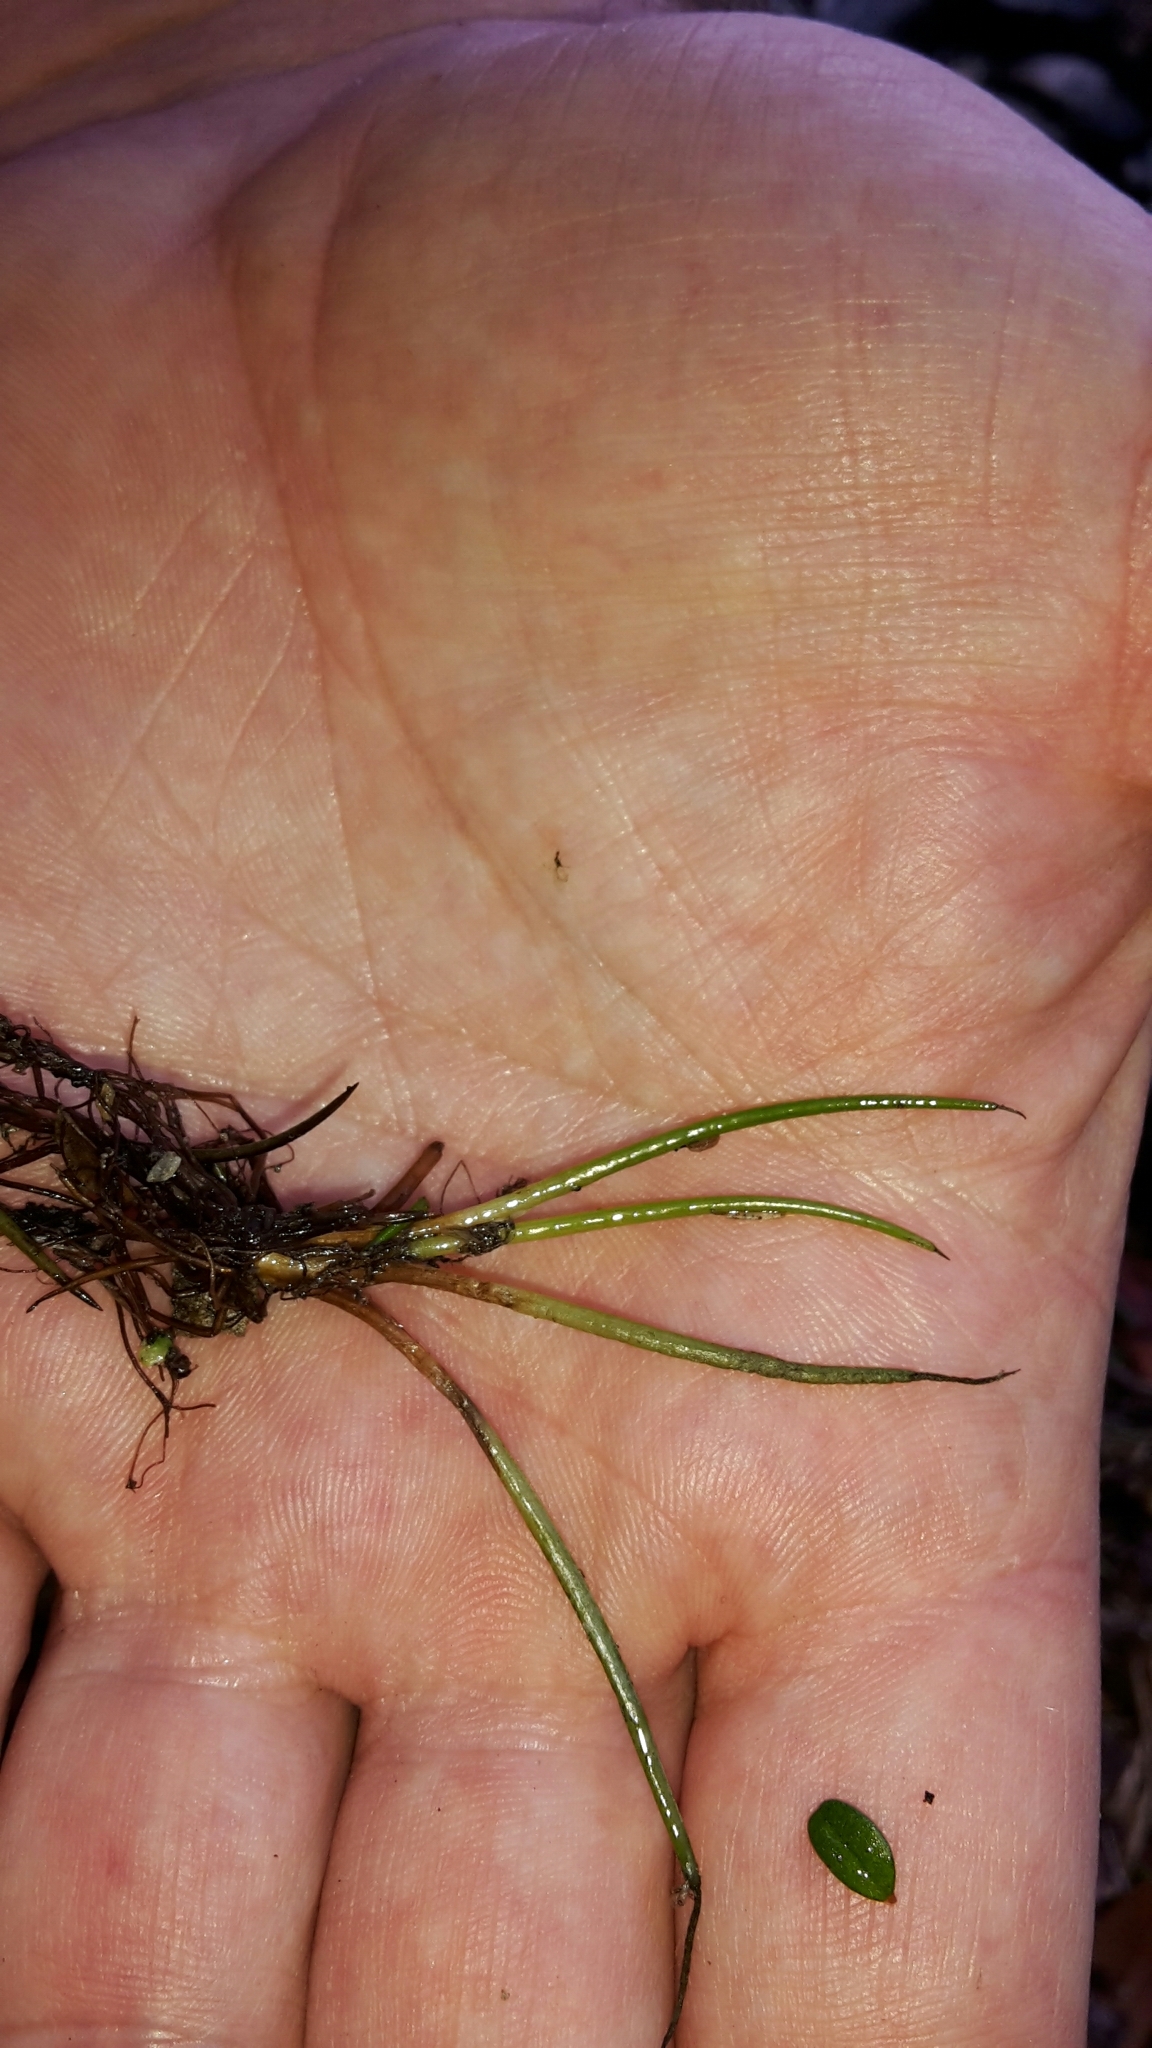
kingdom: Plantae
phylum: Tracheophyta
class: Lycopodiopsida
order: Isoetales
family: Isoetaceae
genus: Isoetes
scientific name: Isoetes alpina
